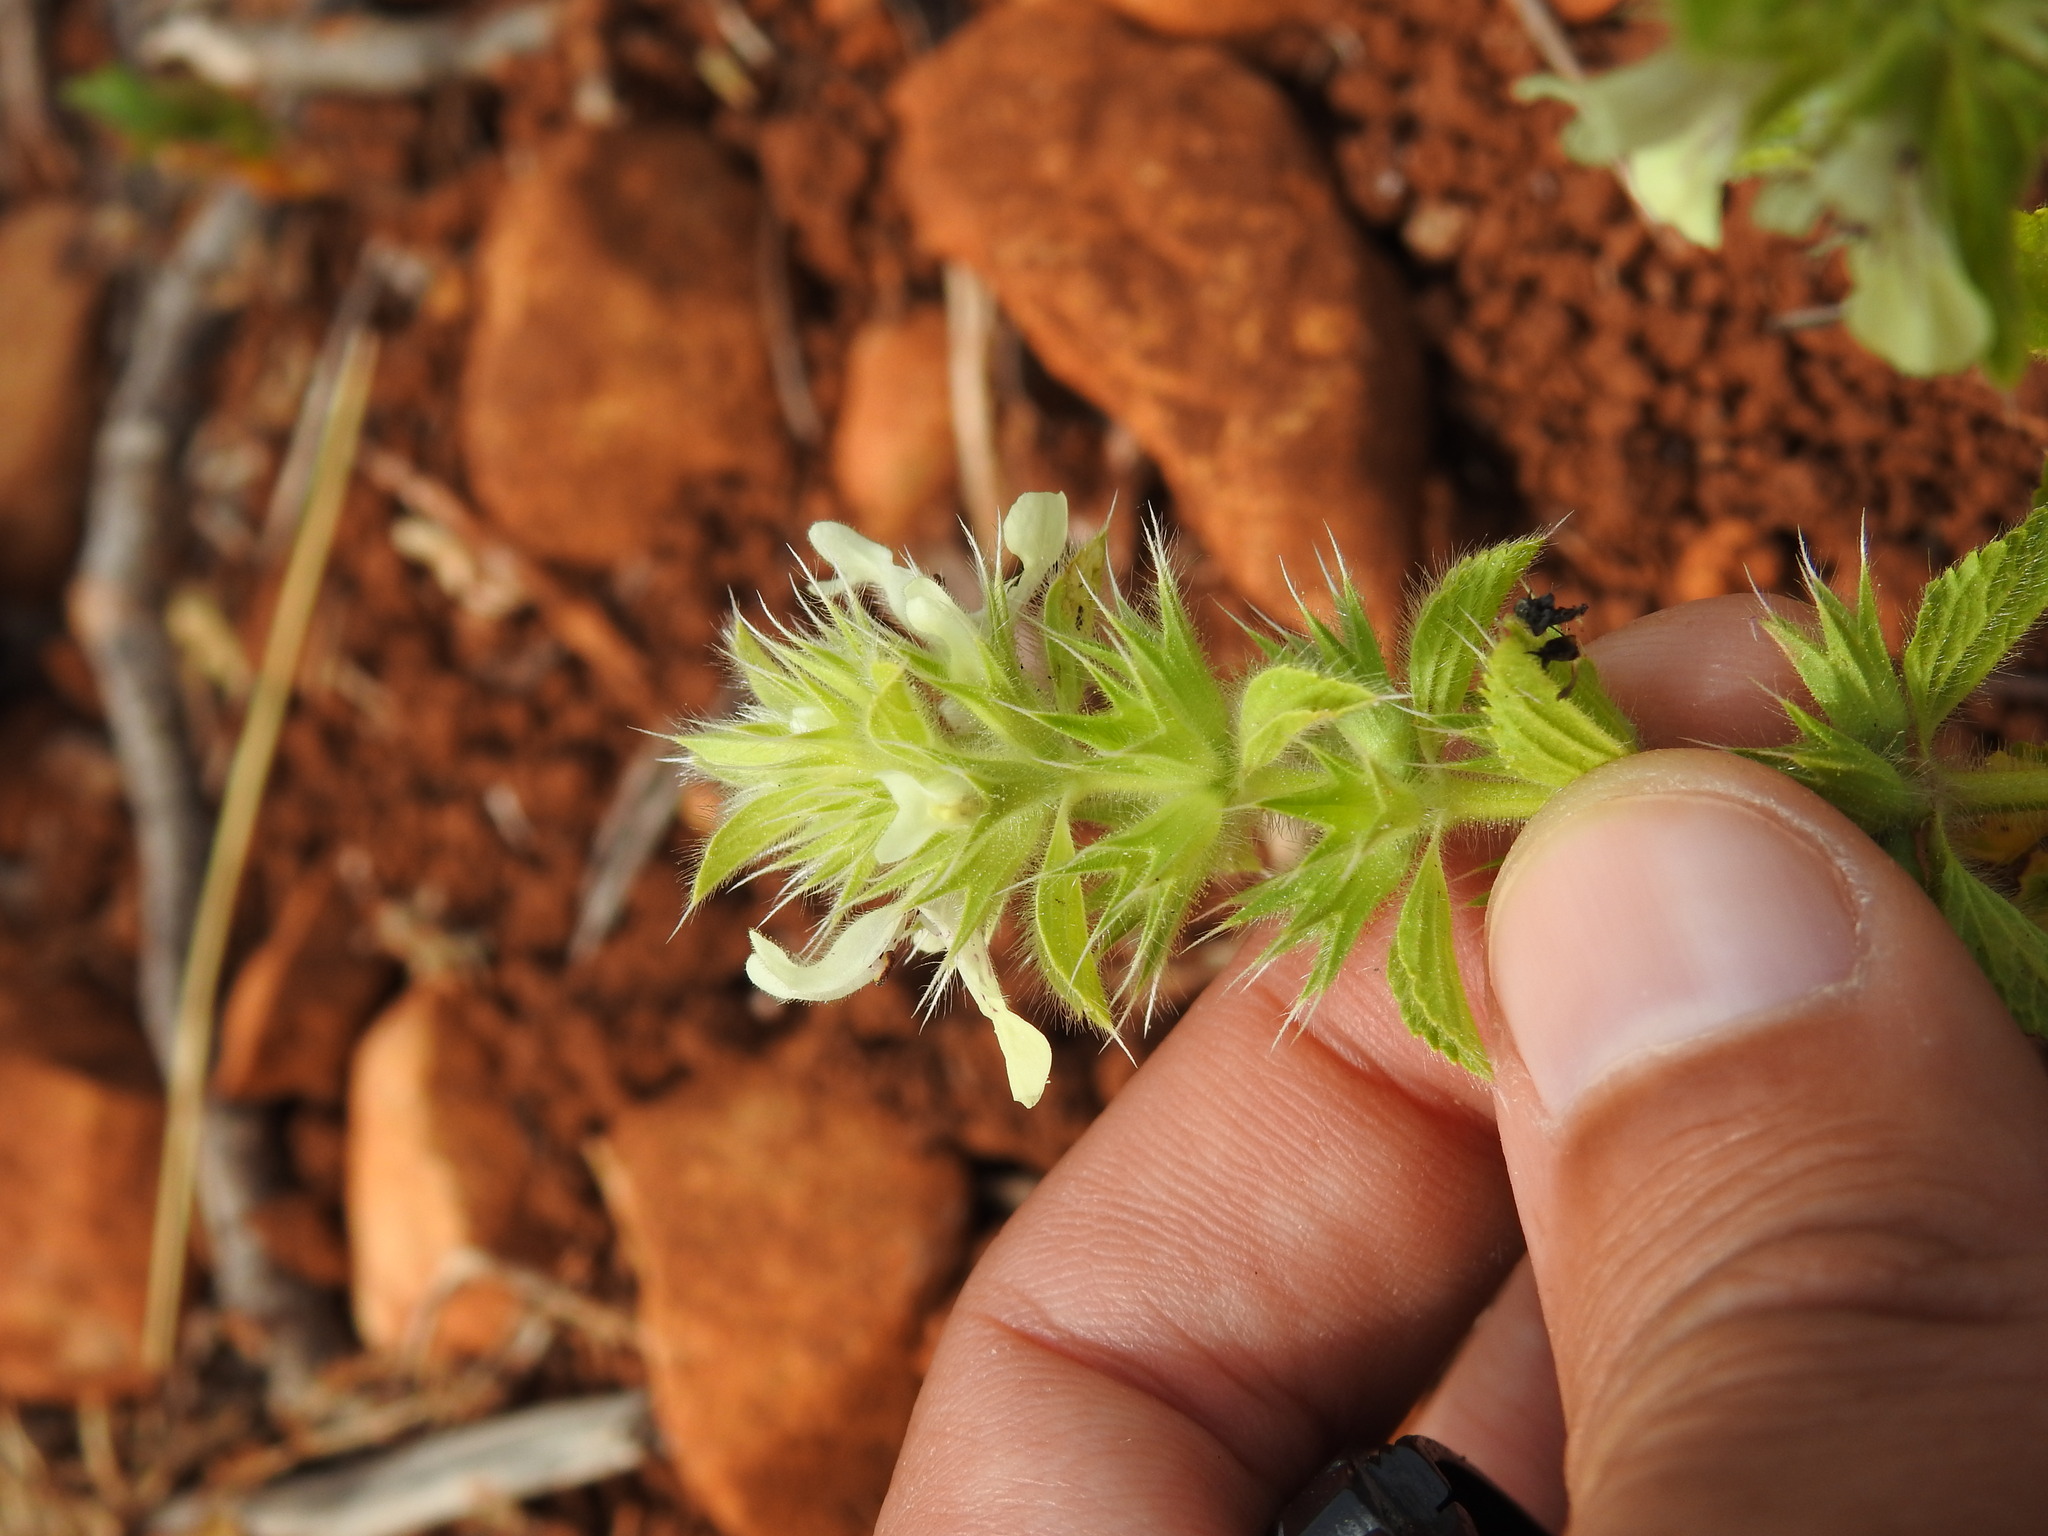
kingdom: Plantae
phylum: Tracheophyta
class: Magnoliopsida
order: Lamiales
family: Lamiaceae
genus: Stachys
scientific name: Stachys ocymastrum
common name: Italian hedgenettle
